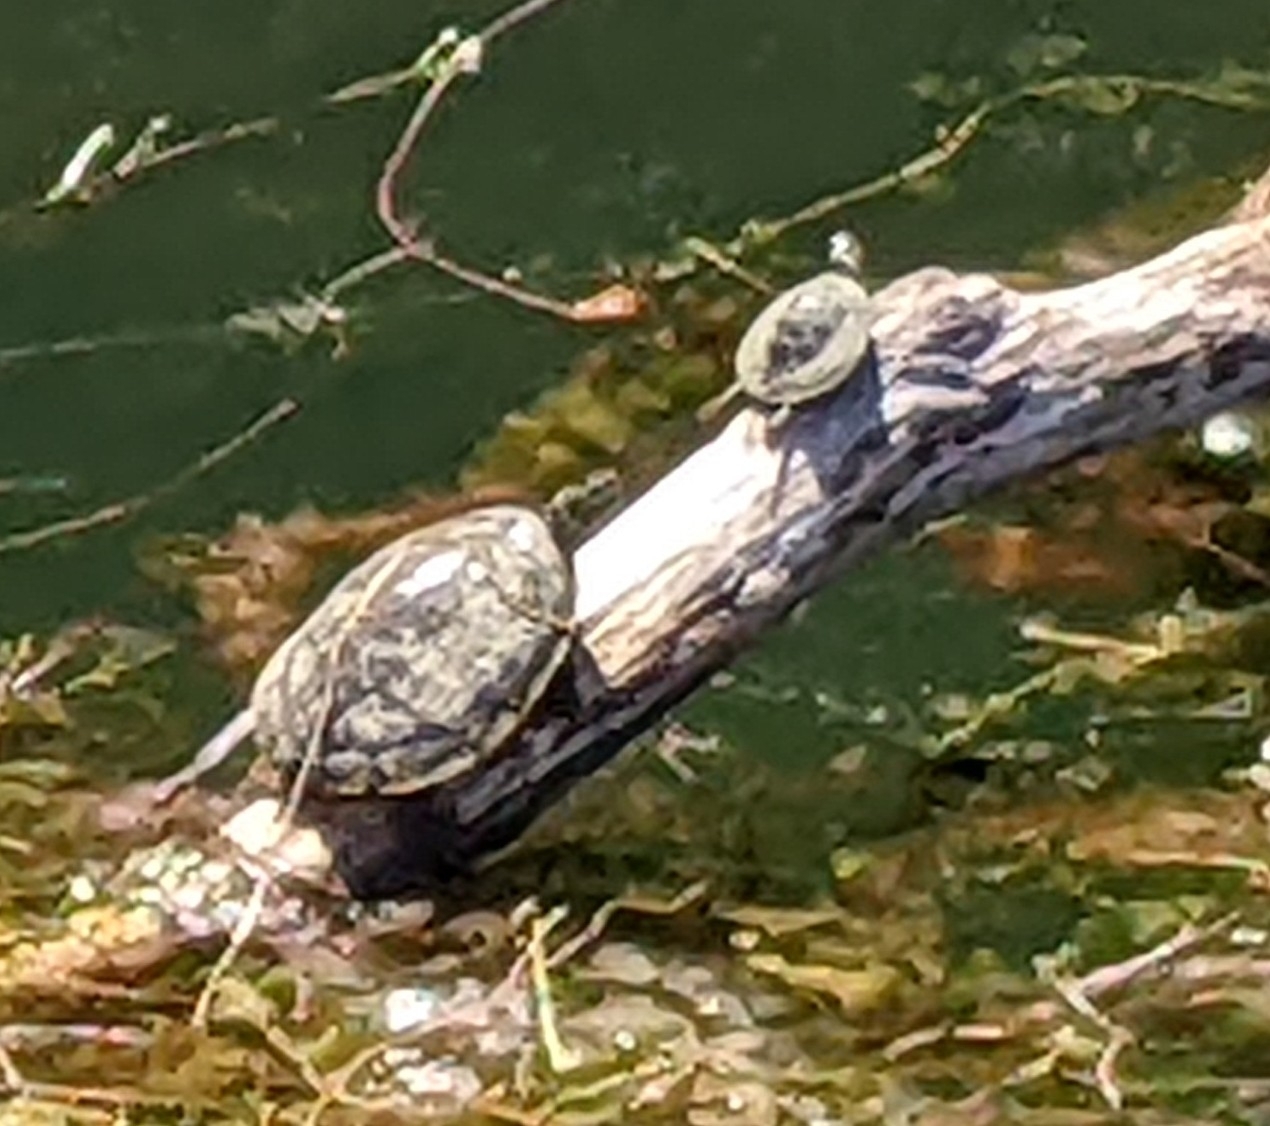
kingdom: Animalia
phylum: Chordata
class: Testudines
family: Emydidae
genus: Pseudemys
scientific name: Pseudemys texana
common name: Texas river cooter
